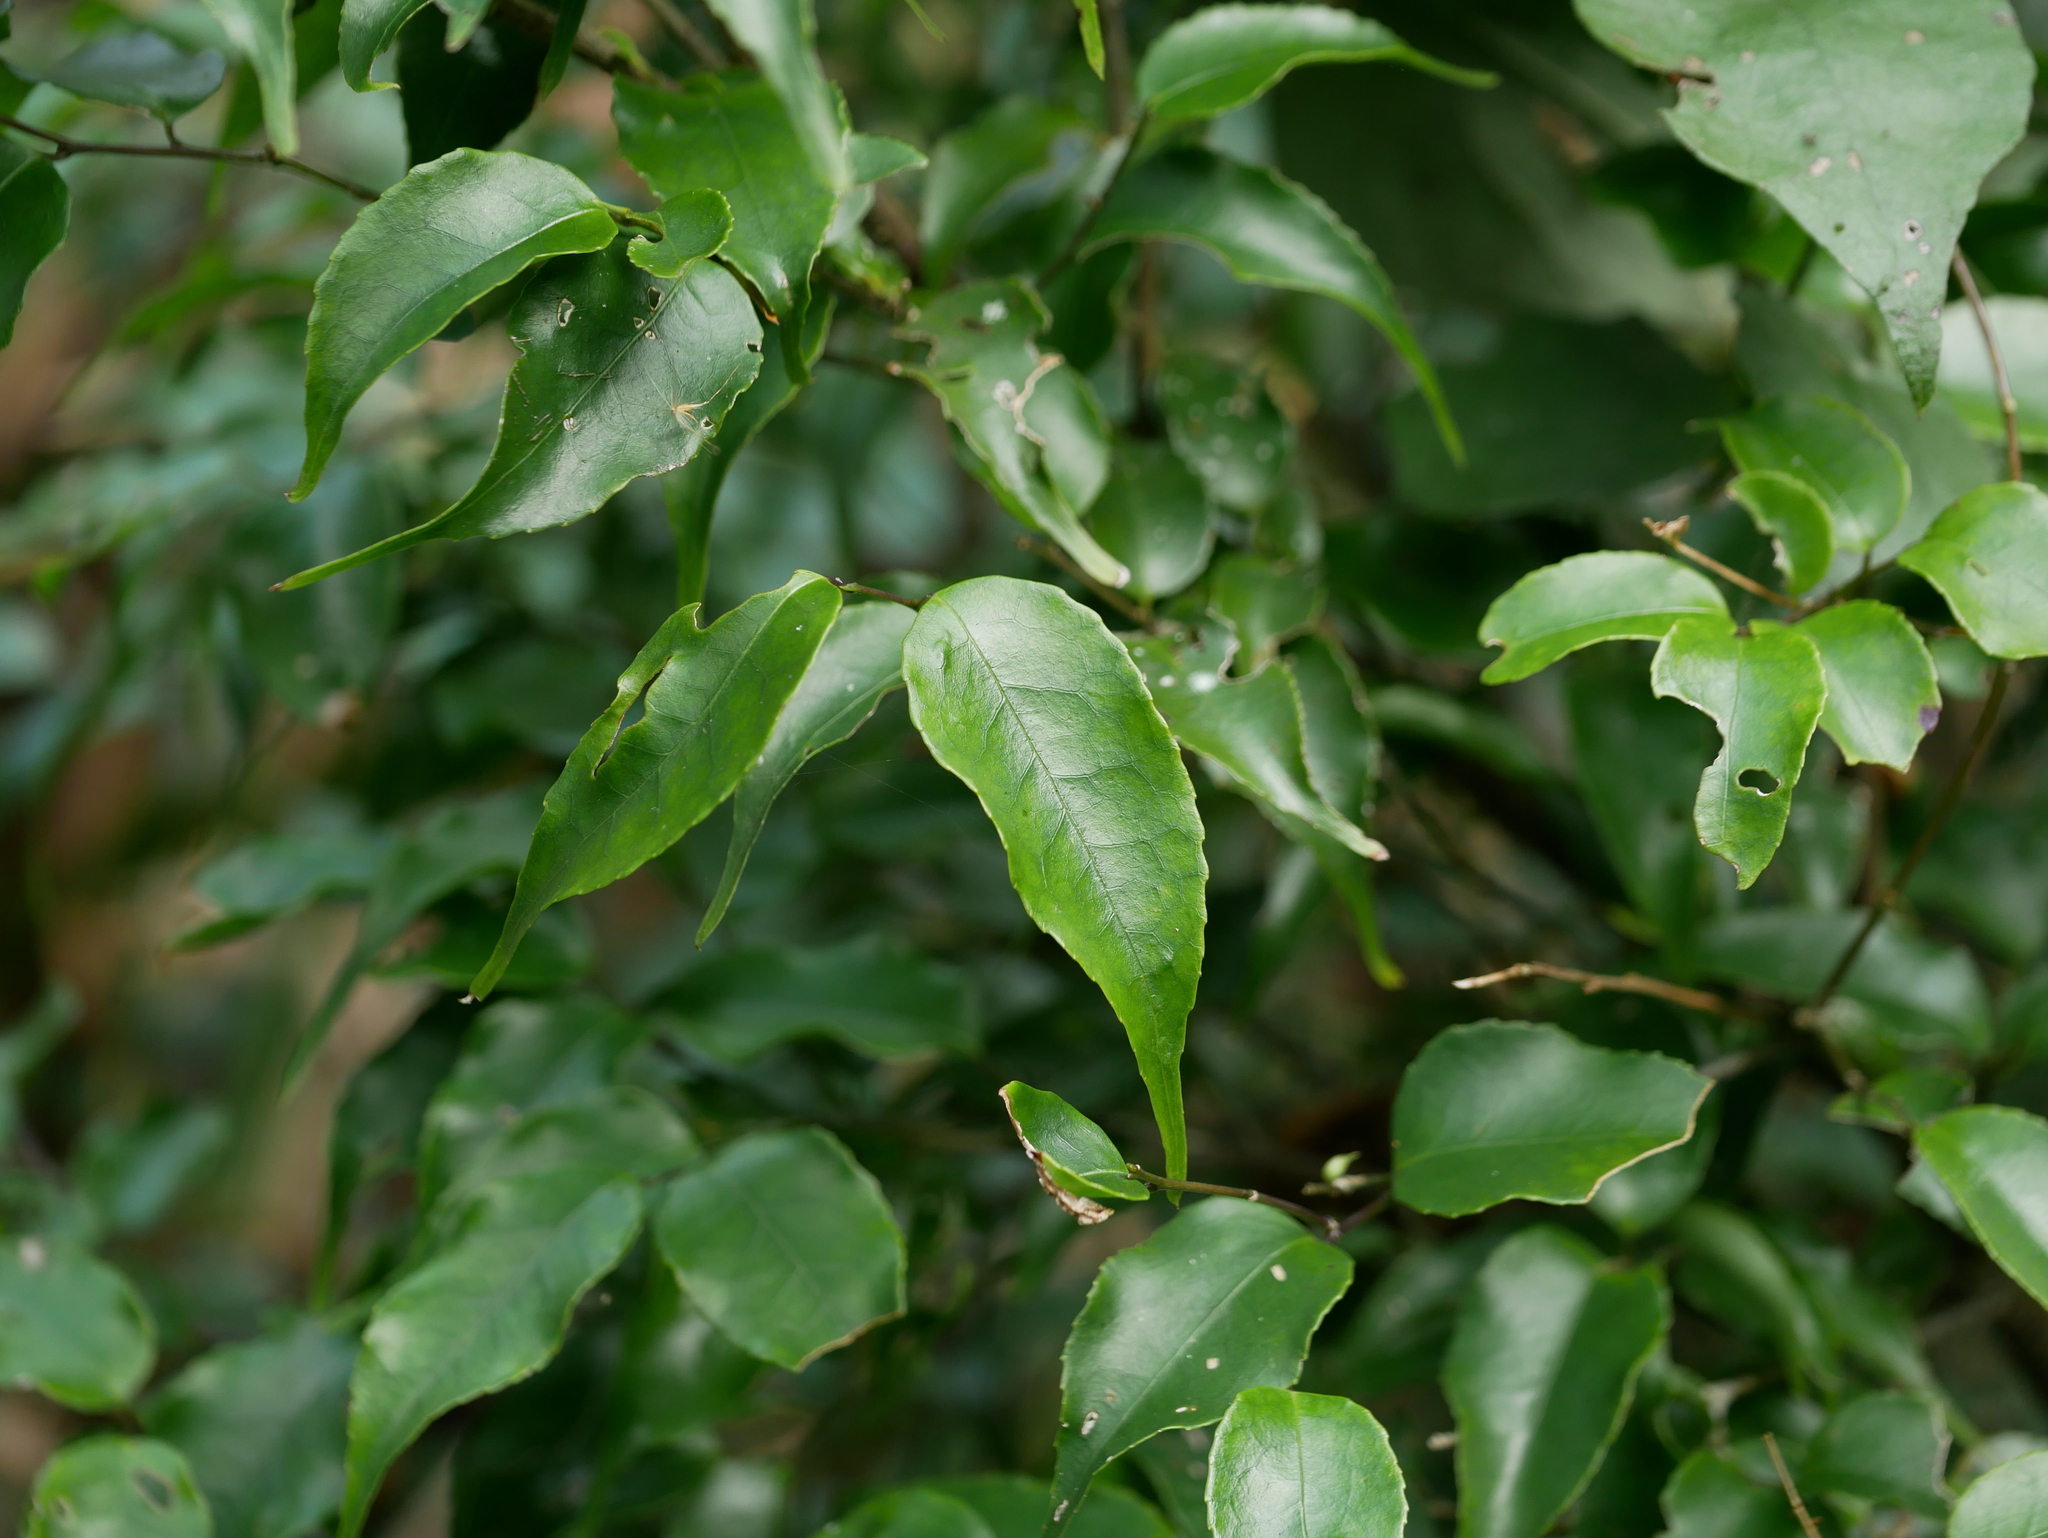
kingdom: Plantae
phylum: Tracheophyta
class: Magnoliopsida
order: Ericales
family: Symplocaceae
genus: Symplocos
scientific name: Symplocos sumuntia
